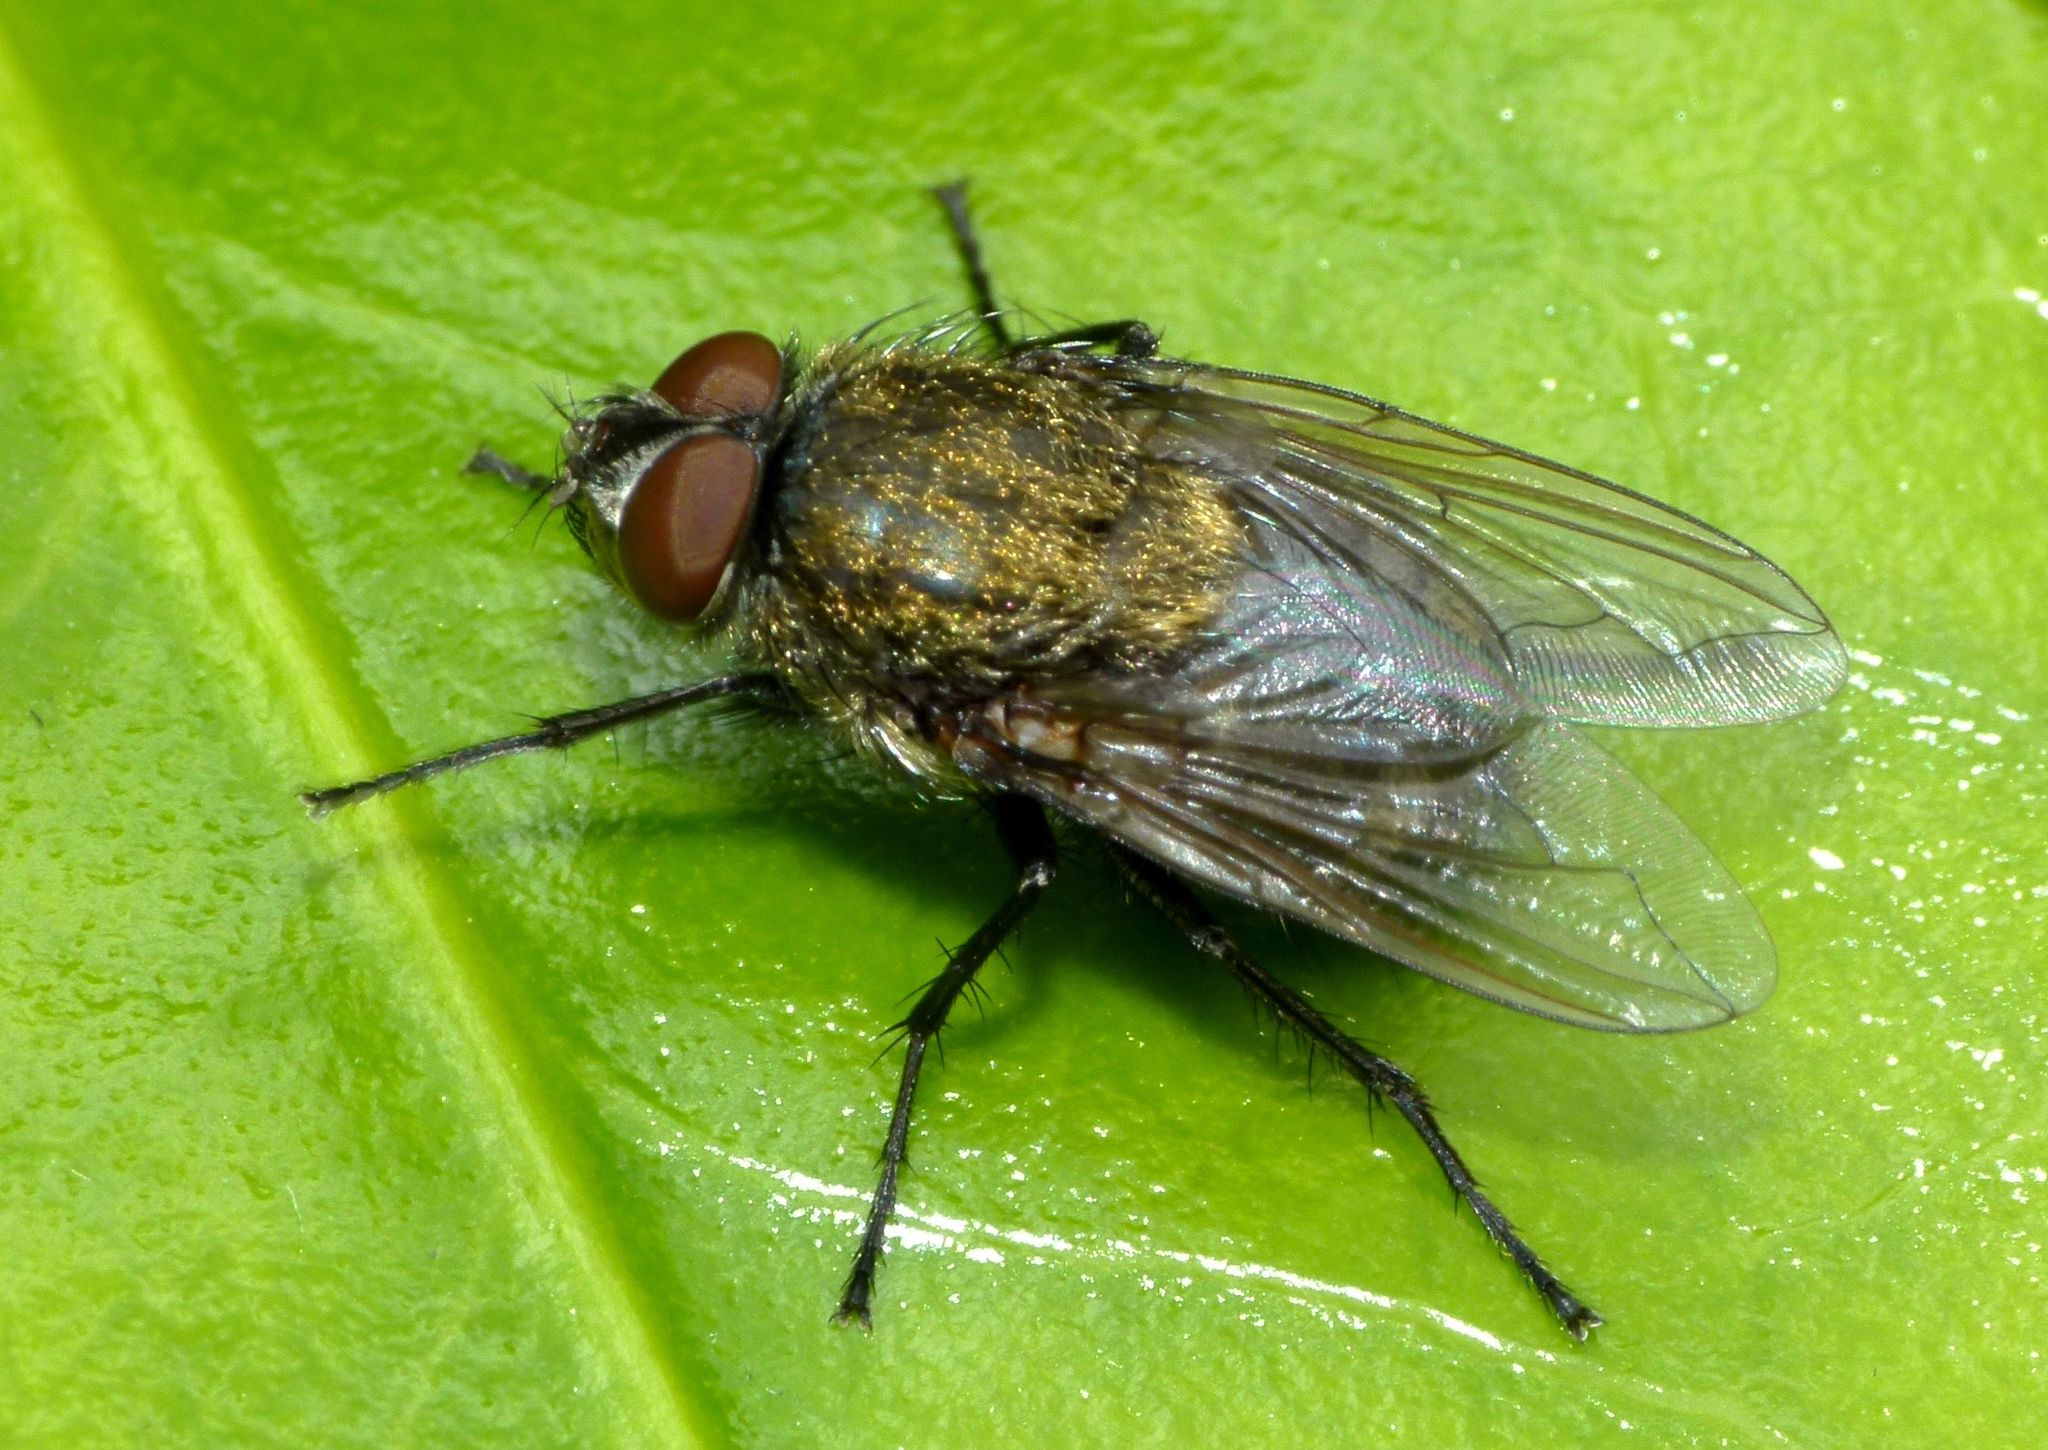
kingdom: Animalia
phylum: Arthropoda
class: Insecta
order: Diptera
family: Polleniidae
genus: Pollenia
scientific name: Pollenia pediculata
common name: Tufted clusterfly
